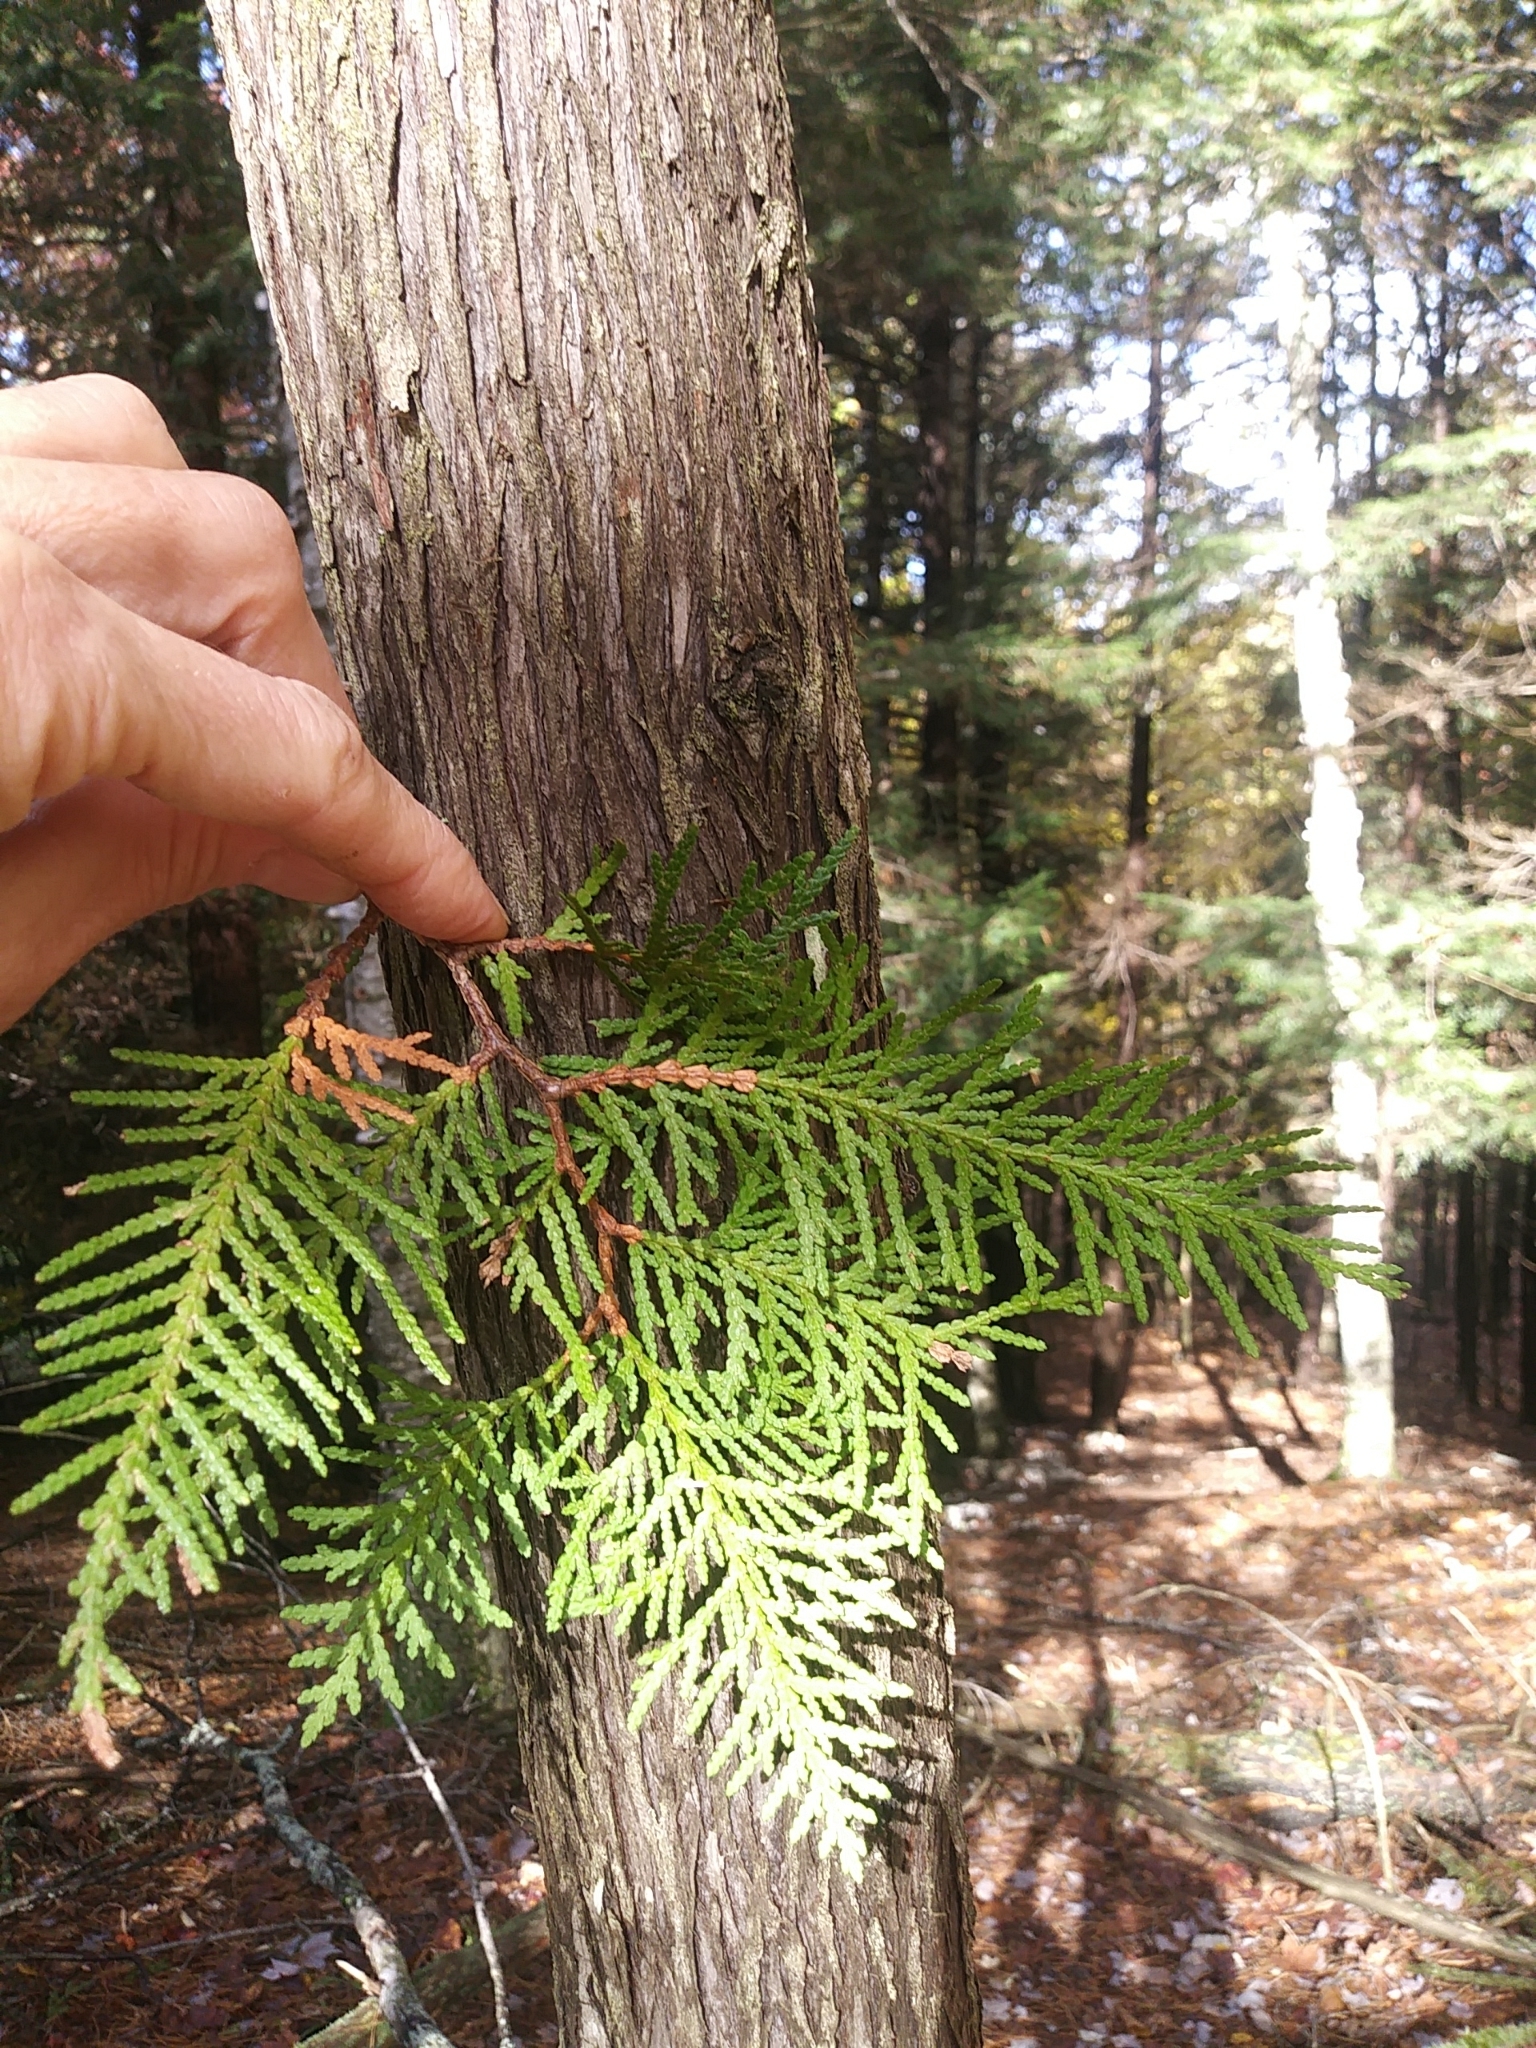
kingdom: Plantae
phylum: Tracheophyta
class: Pinopsida
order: Pinales
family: Cupressaceae
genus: Thuja
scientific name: Thuja occidentalis
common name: Northern white-cedar
